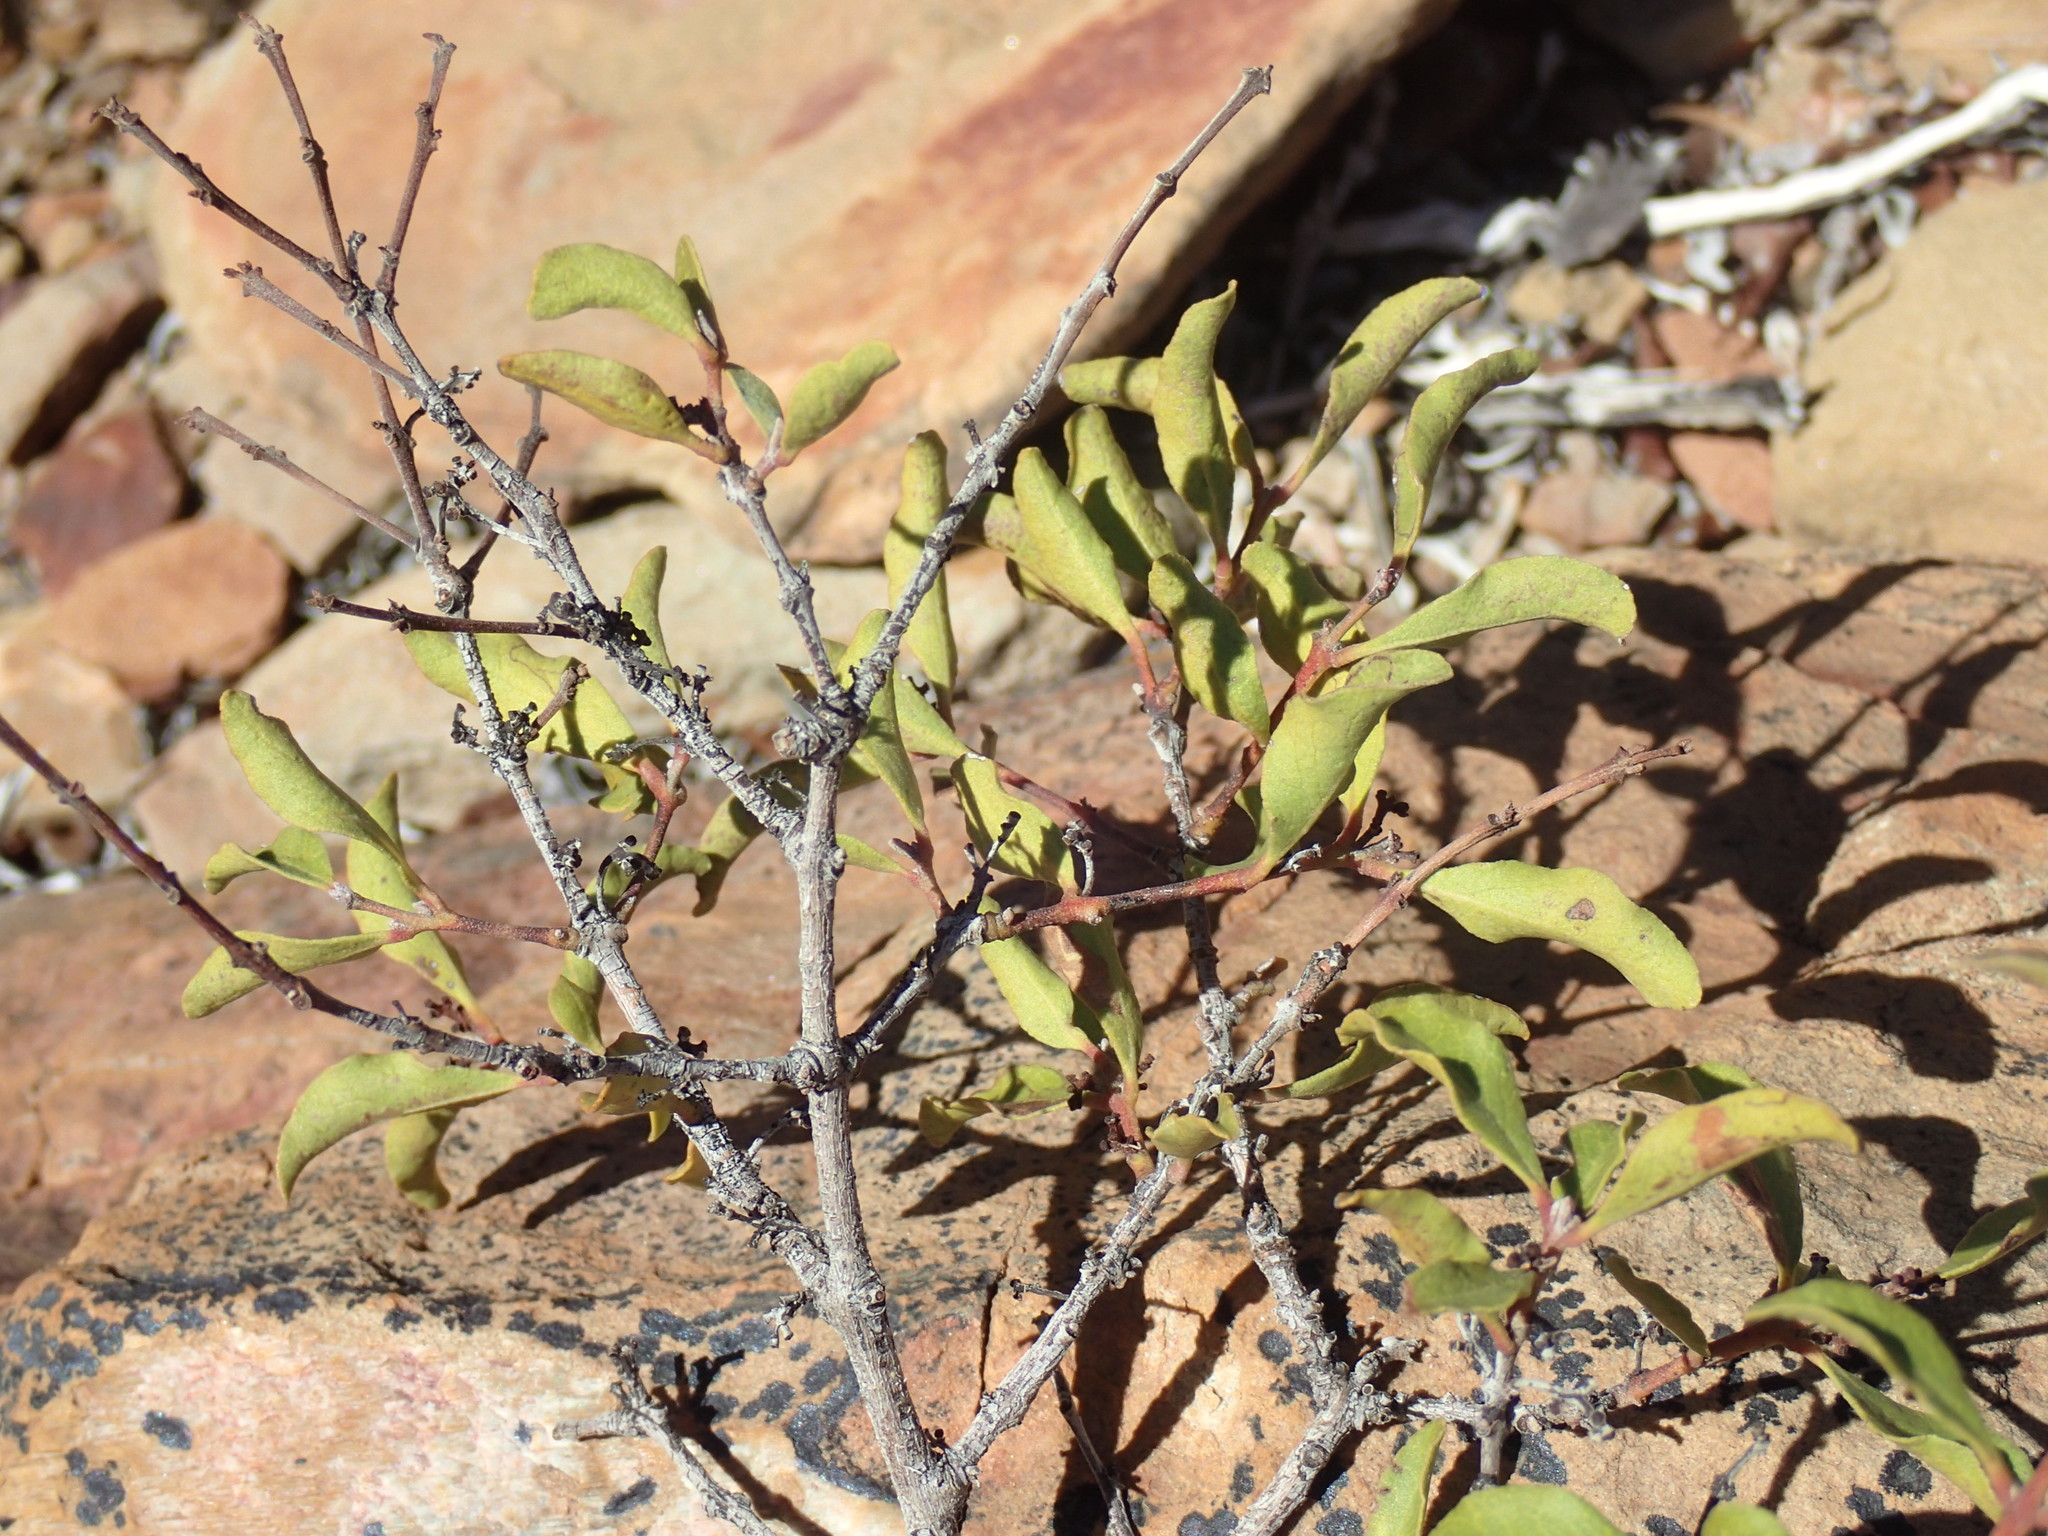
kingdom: Plantae
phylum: Tracheophyta
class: Magnoliopsida
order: Ericales
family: Ebenaceae
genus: Euclea
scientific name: Euclea undulata
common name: Small-leaved guarri
